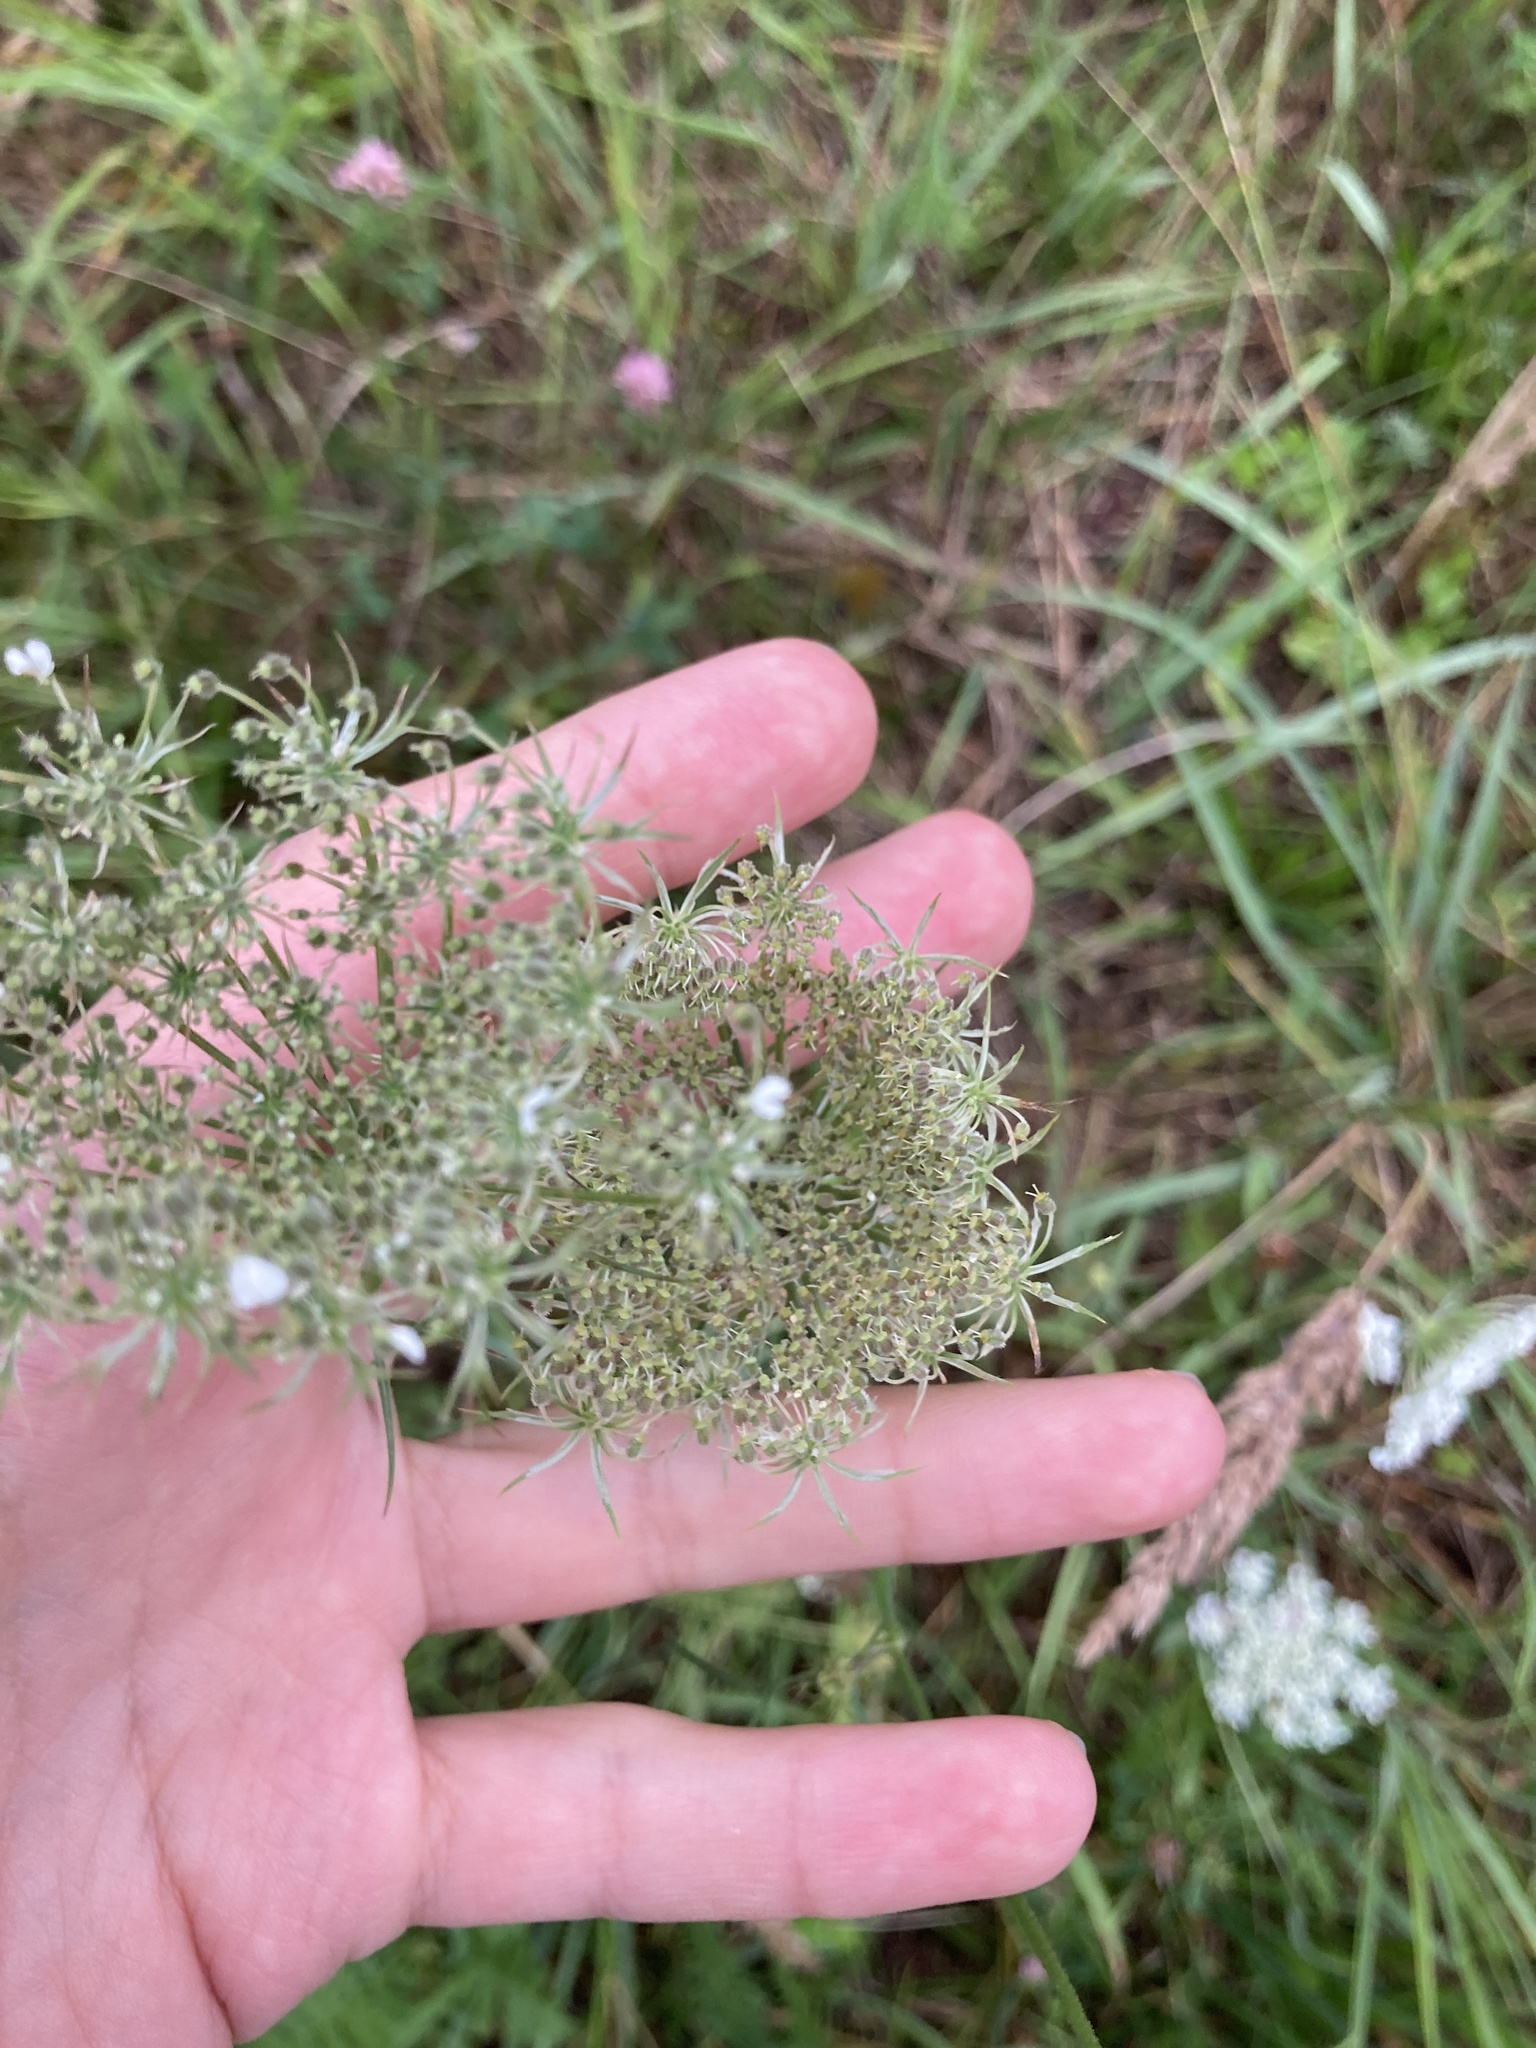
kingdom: Plantae
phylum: Tracheophyta
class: Magnoliopsida
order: Apiales
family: Apiaceae
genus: Daucus
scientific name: Daucus carota
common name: Wild carrot
